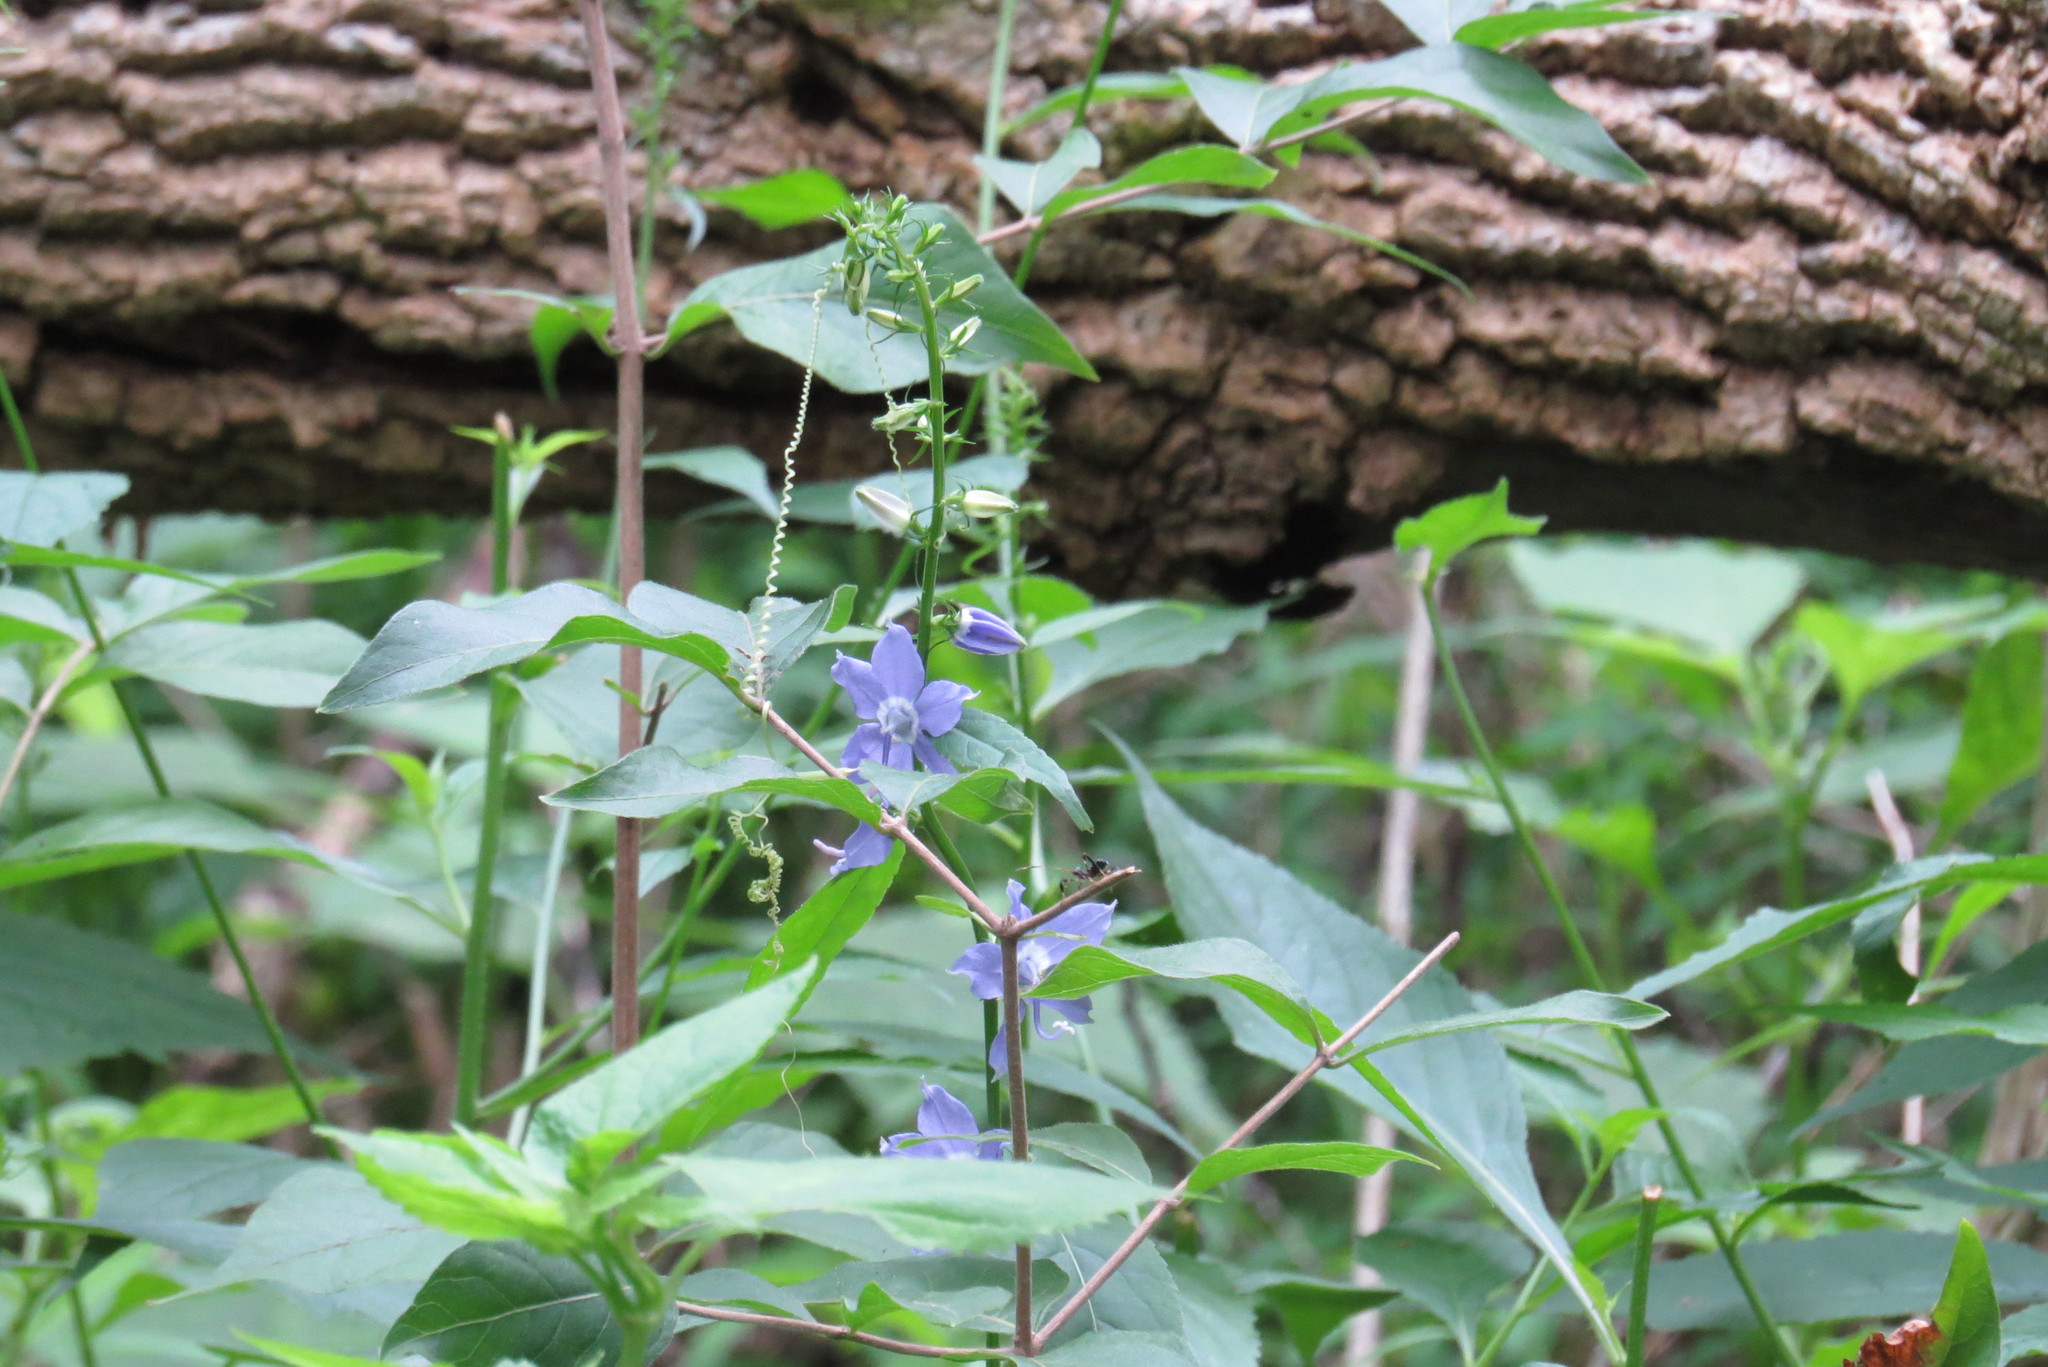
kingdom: Plantae
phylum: Tracheophyta
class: Magnoliopsida
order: Asterales
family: Campanulaceae
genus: Campanulastrum
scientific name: Campanulastrum americanum
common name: American bellflower
